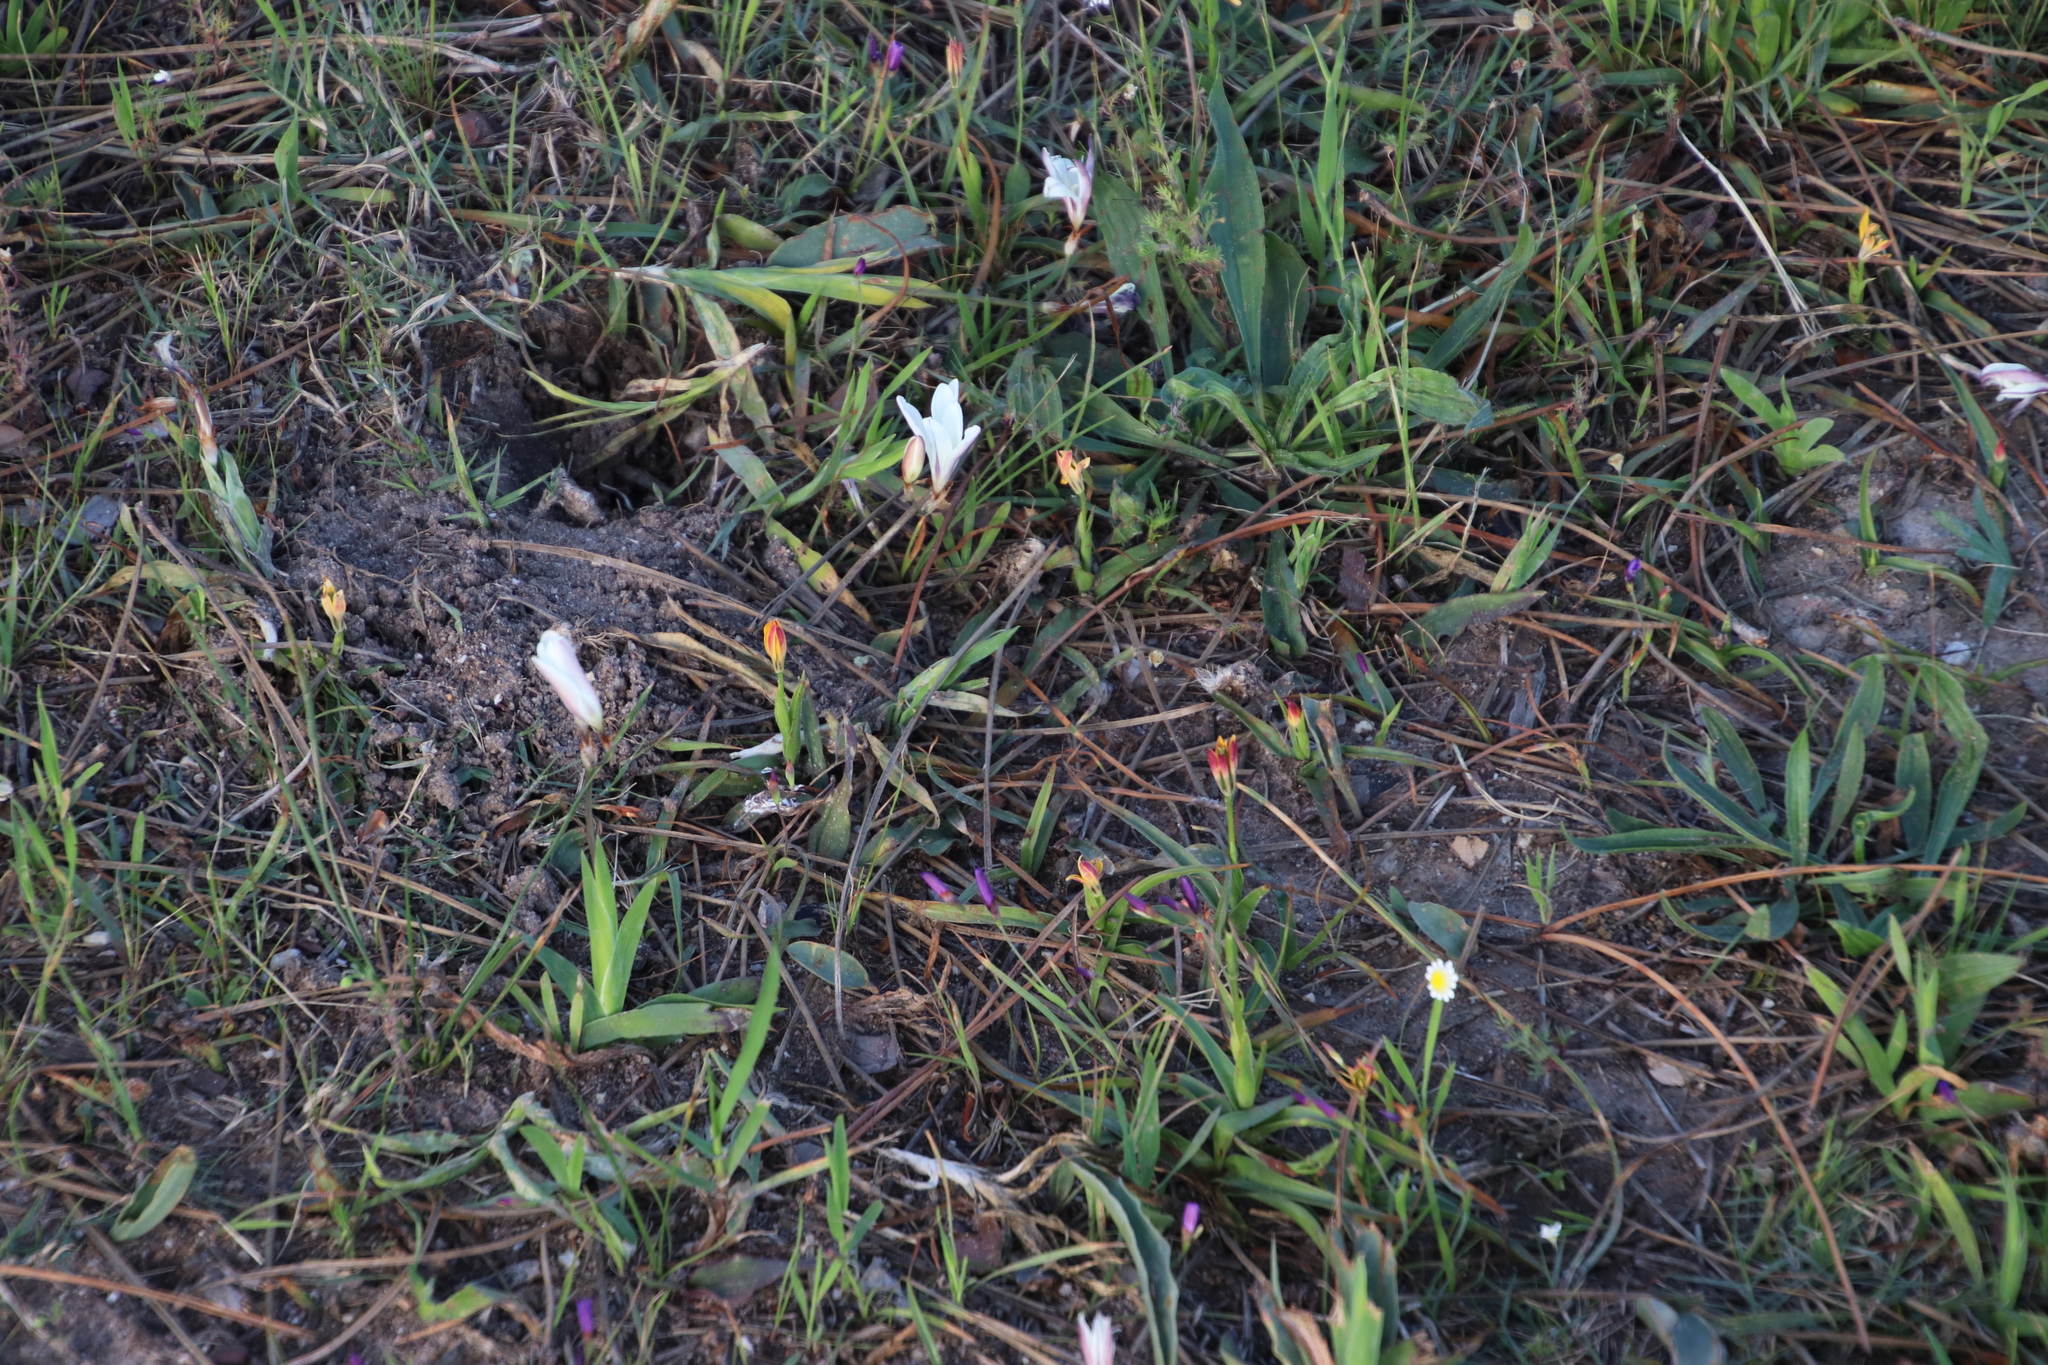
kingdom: Plantae
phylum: Tracheophyta
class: Liliopsida
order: Liliales
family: Colchicaceae
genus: Baeometra
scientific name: Baeometra uniflora
